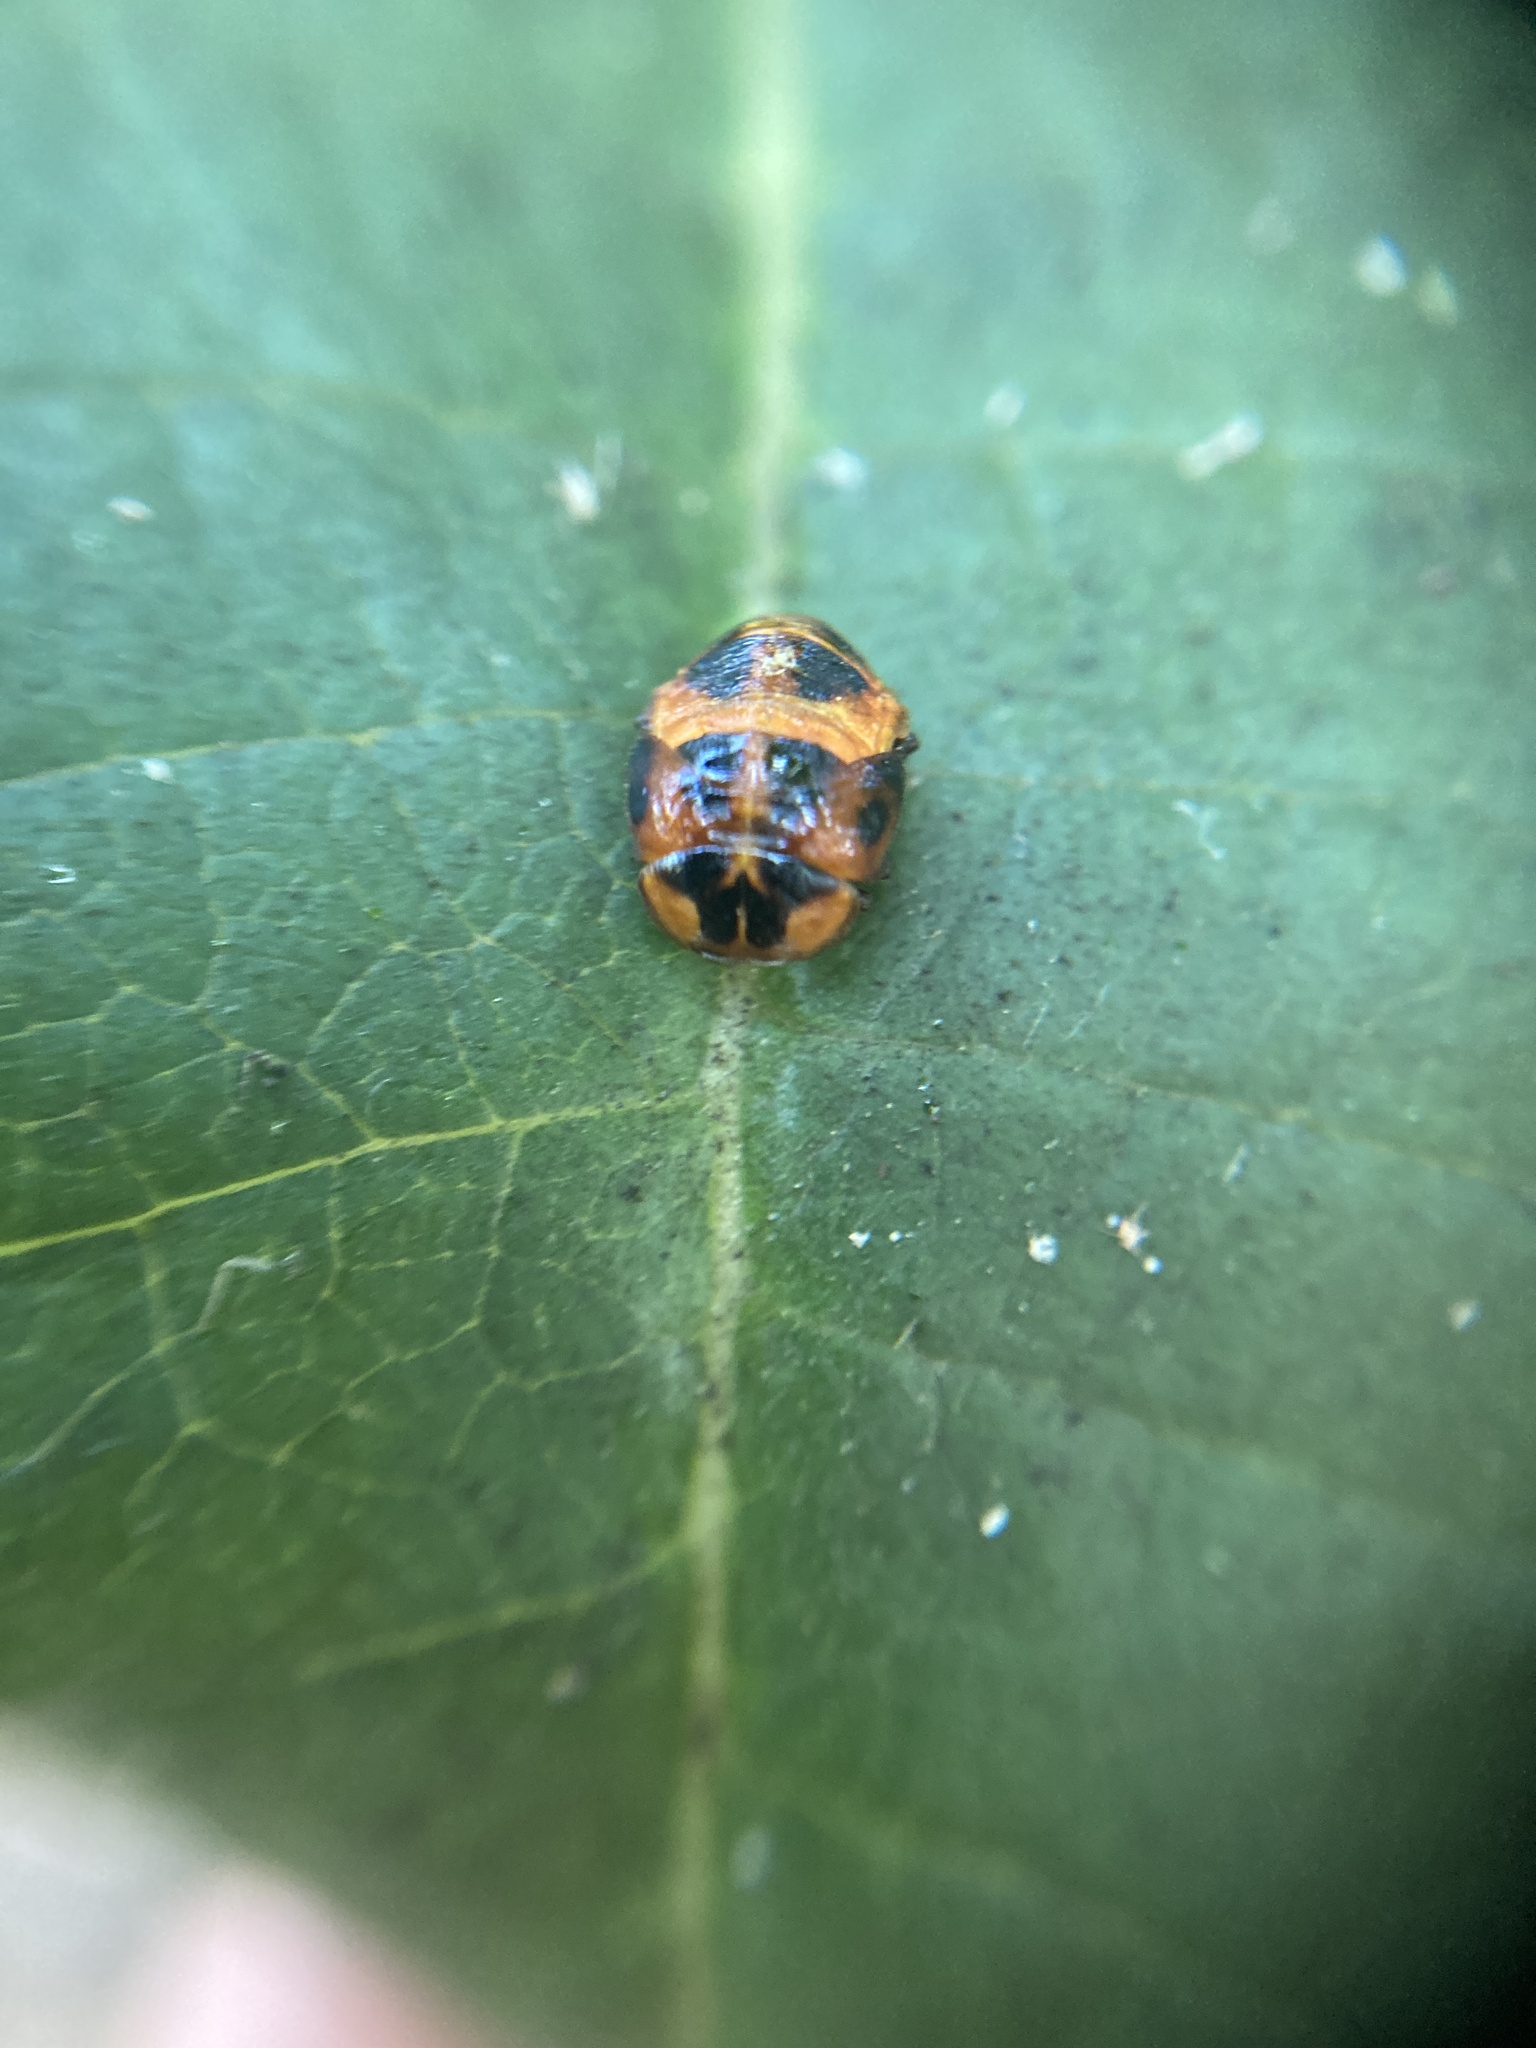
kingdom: Animalia
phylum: Arthropoda
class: Insecta
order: Coleoptera
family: Coccinellidae
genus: Harmonia
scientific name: Harmonia axyridis
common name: Harlequin ladybird
